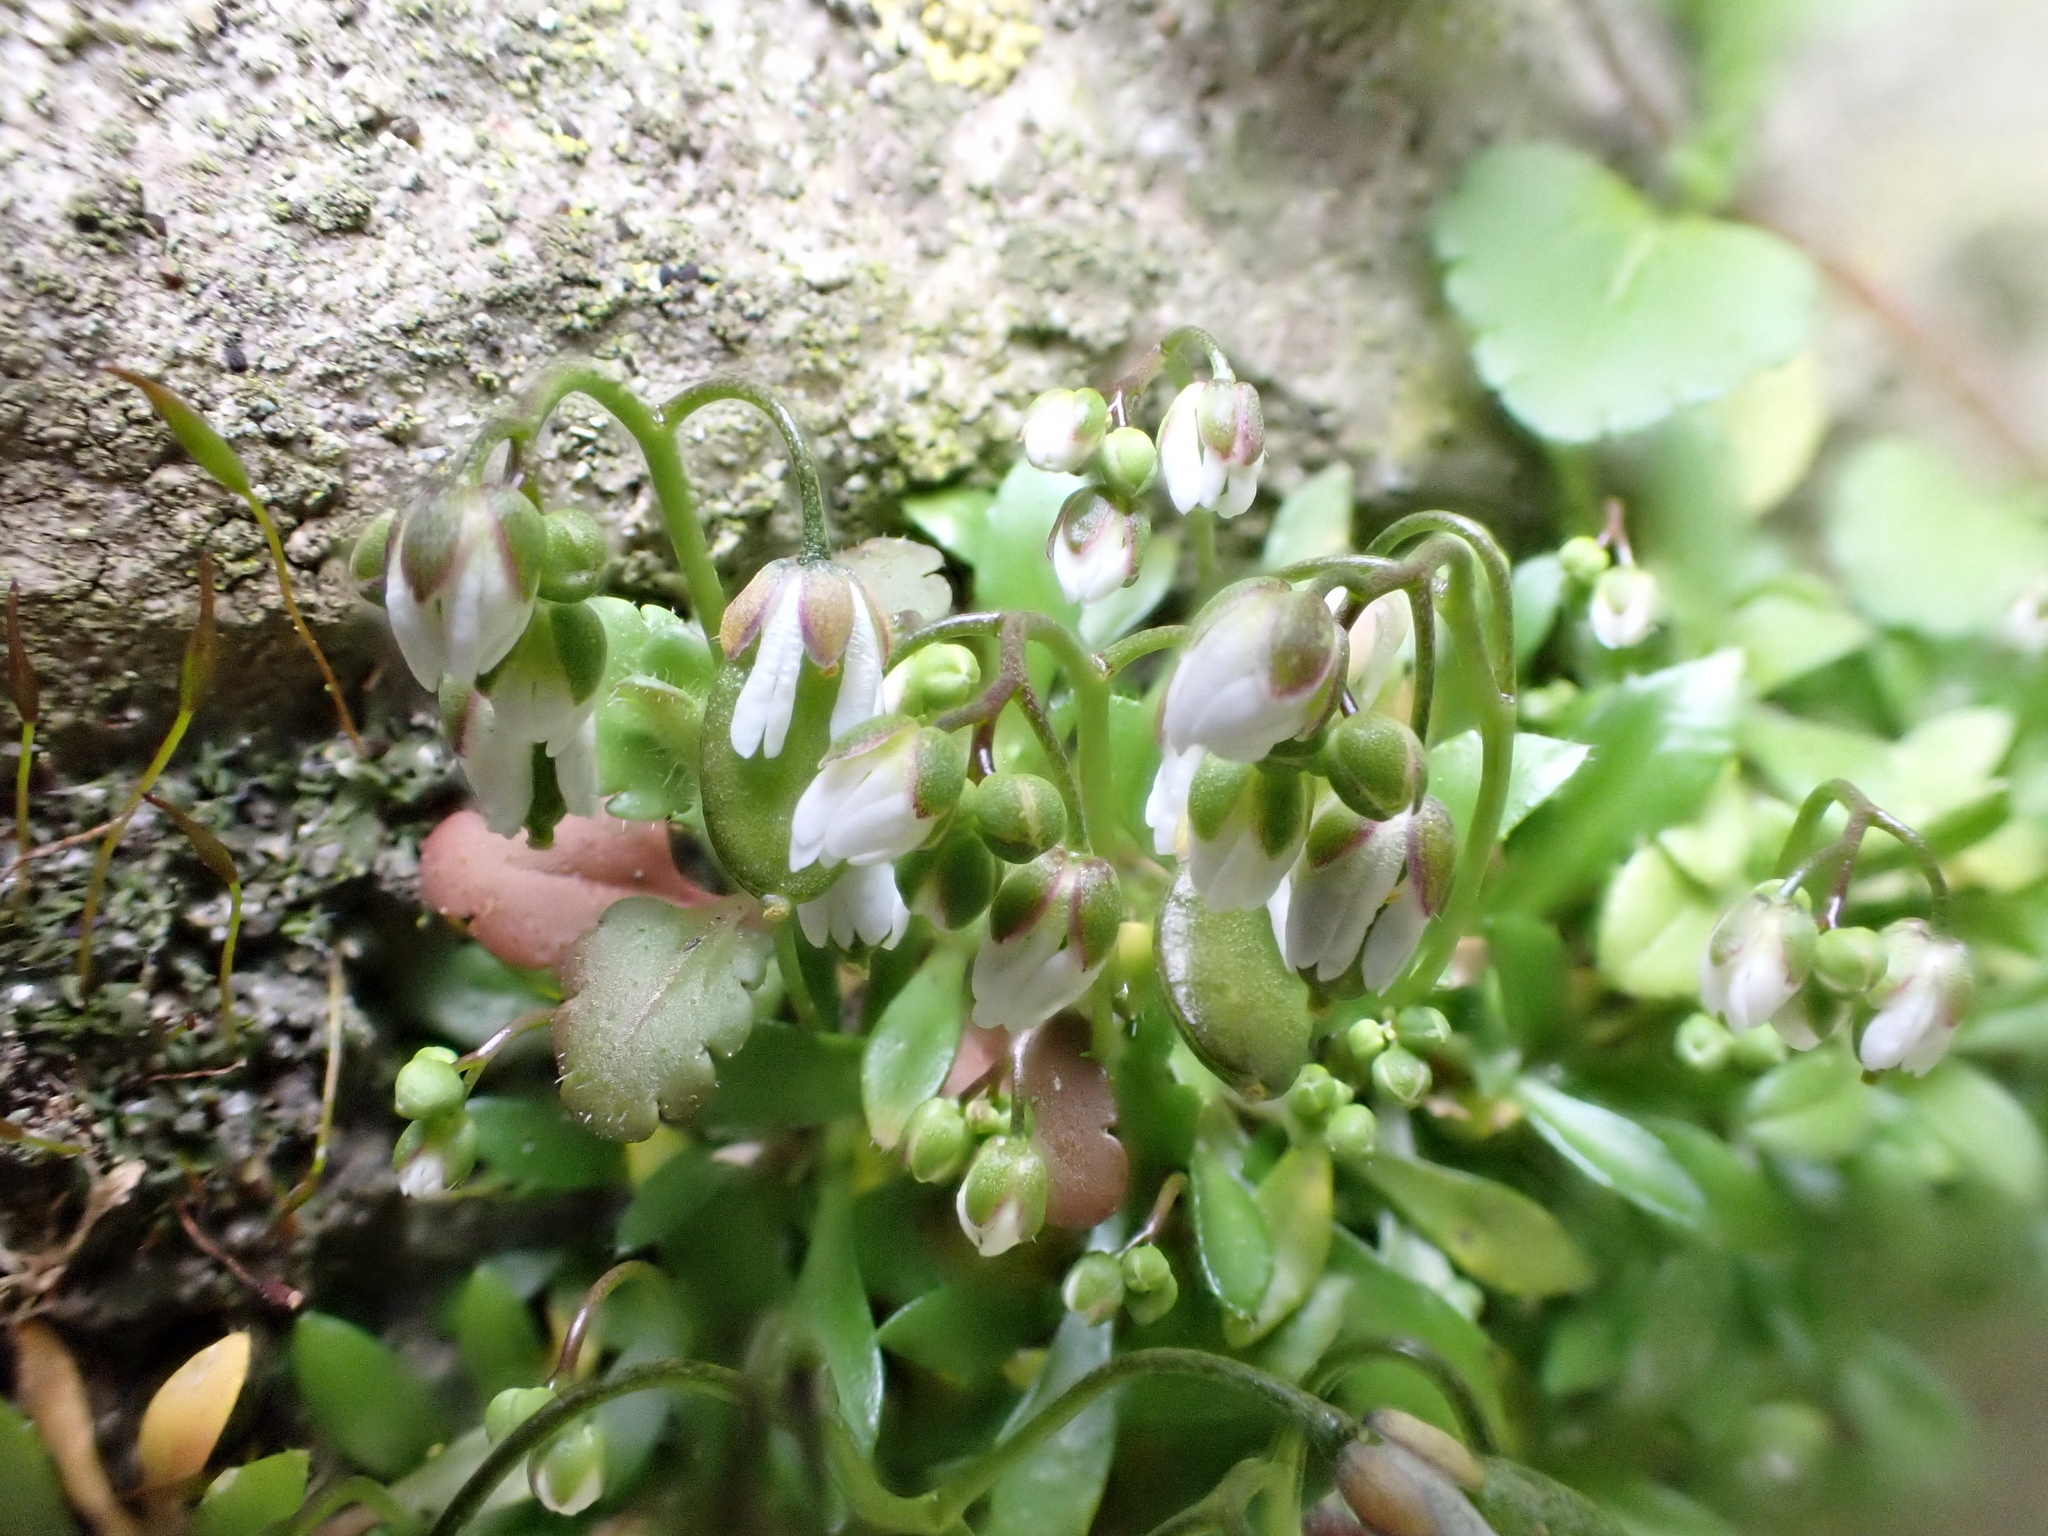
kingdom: Plantae
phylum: Tracheophyta
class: Magnoliopsida
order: Brassicales
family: Brassicaceae
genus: Draba
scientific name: Draba verna
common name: Spring draba
